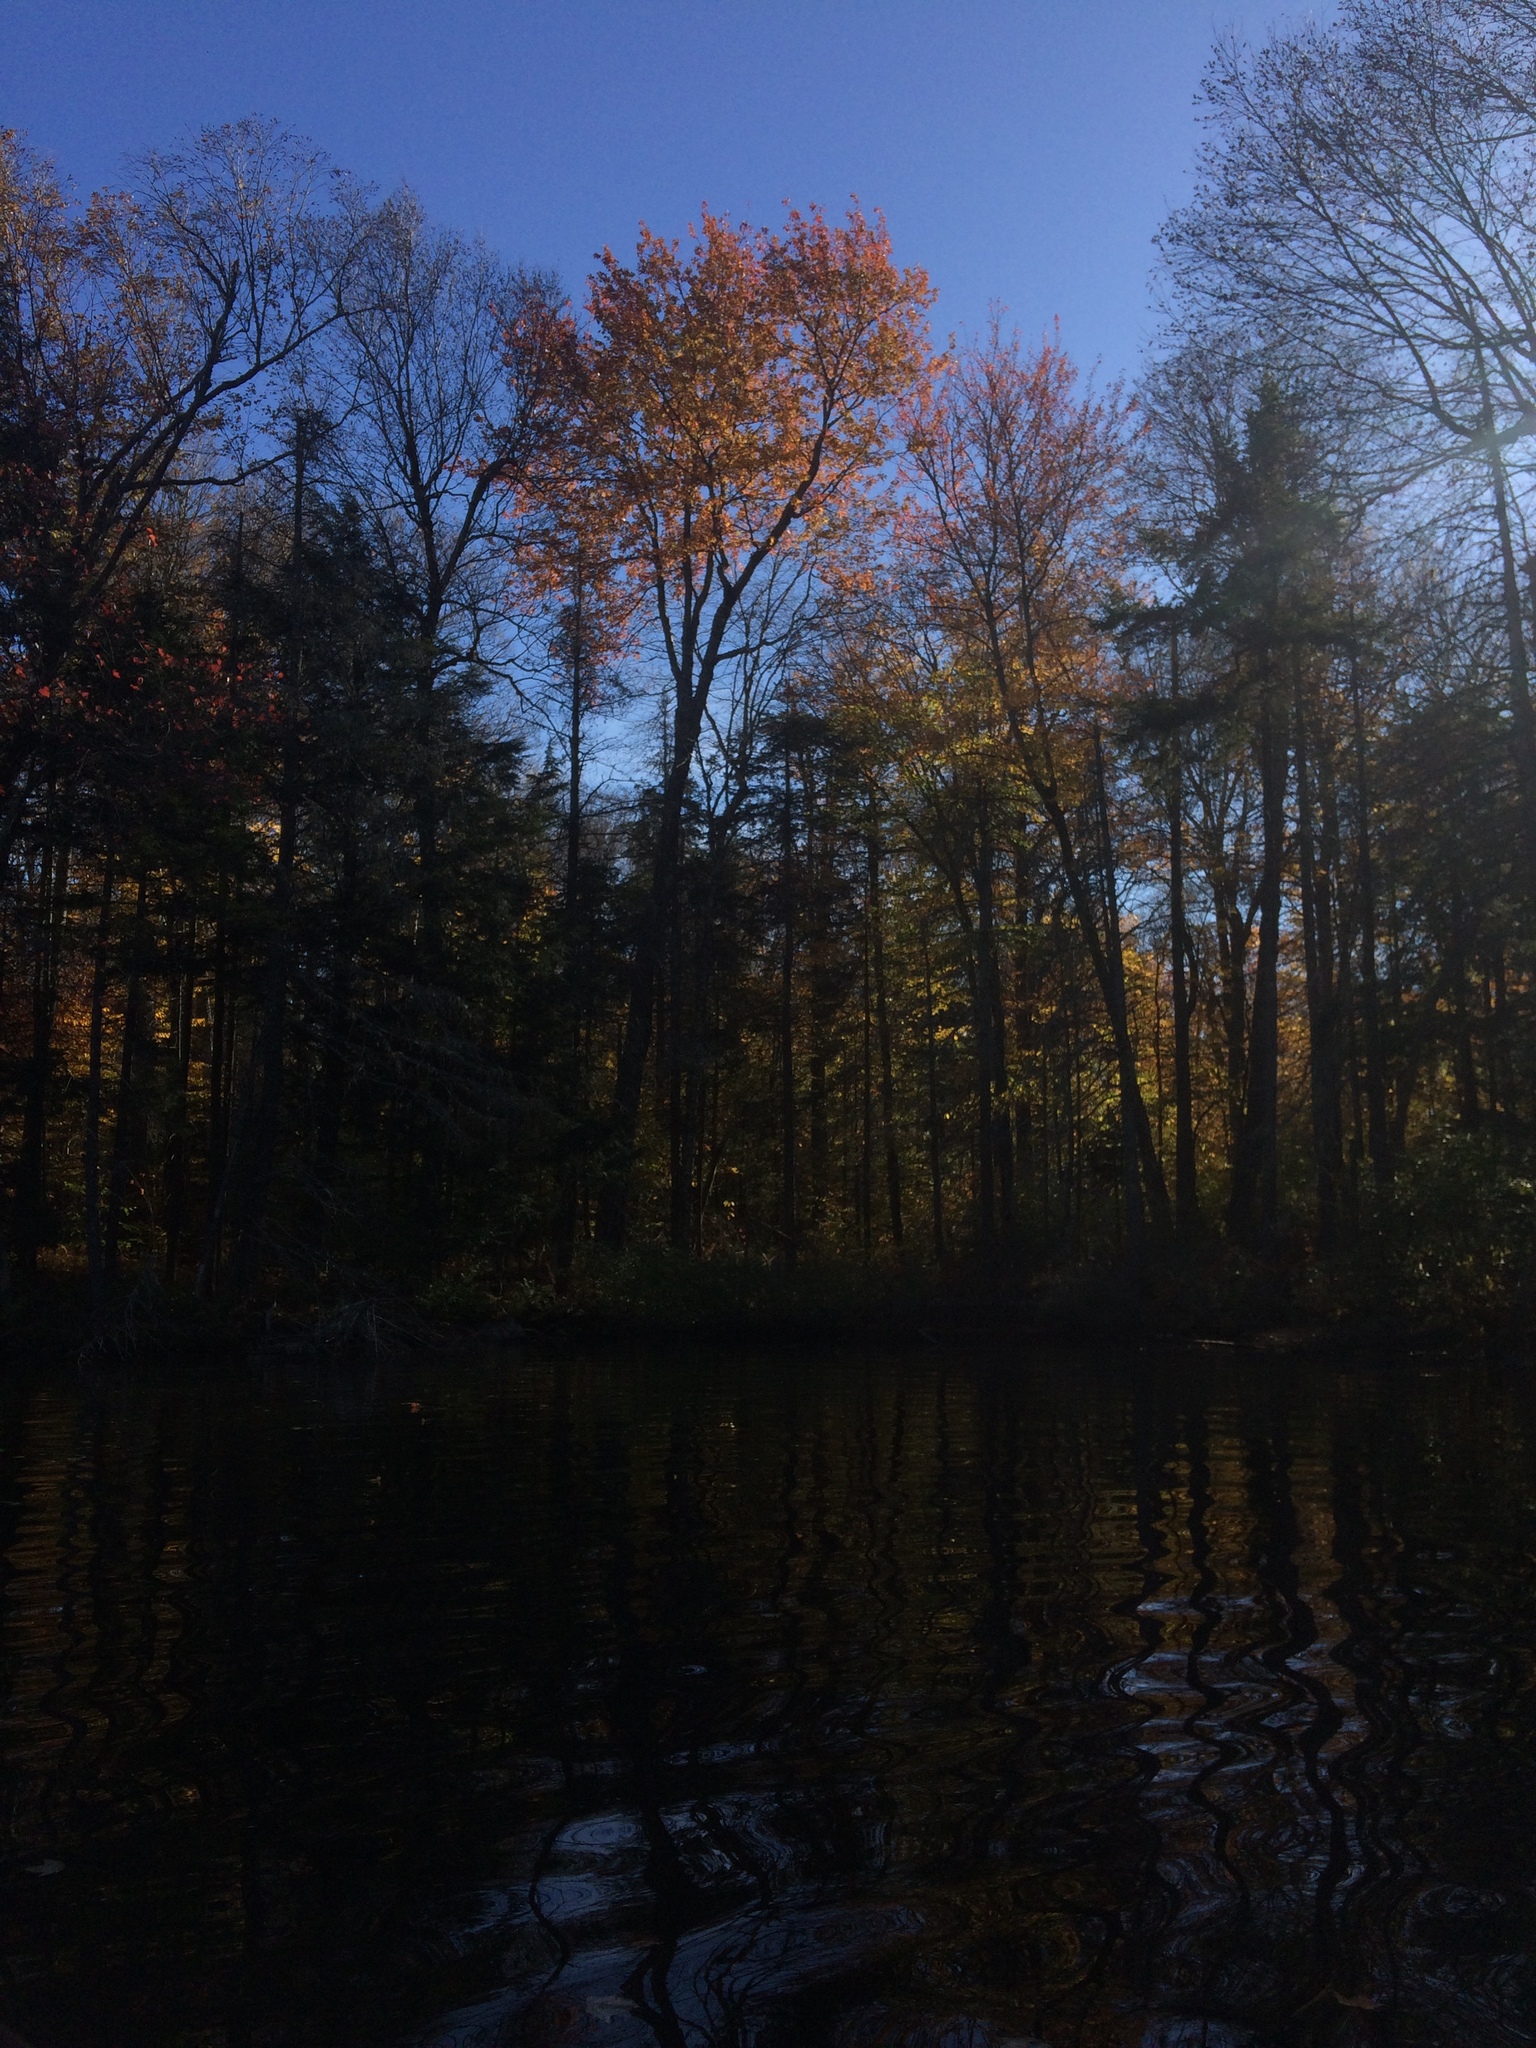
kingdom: Plantae
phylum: Tracheophyta
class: Magnoliopsida
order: Sapindales
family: Sapindaceae
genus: Acer
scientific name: Acer rubrum
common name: Red maple
